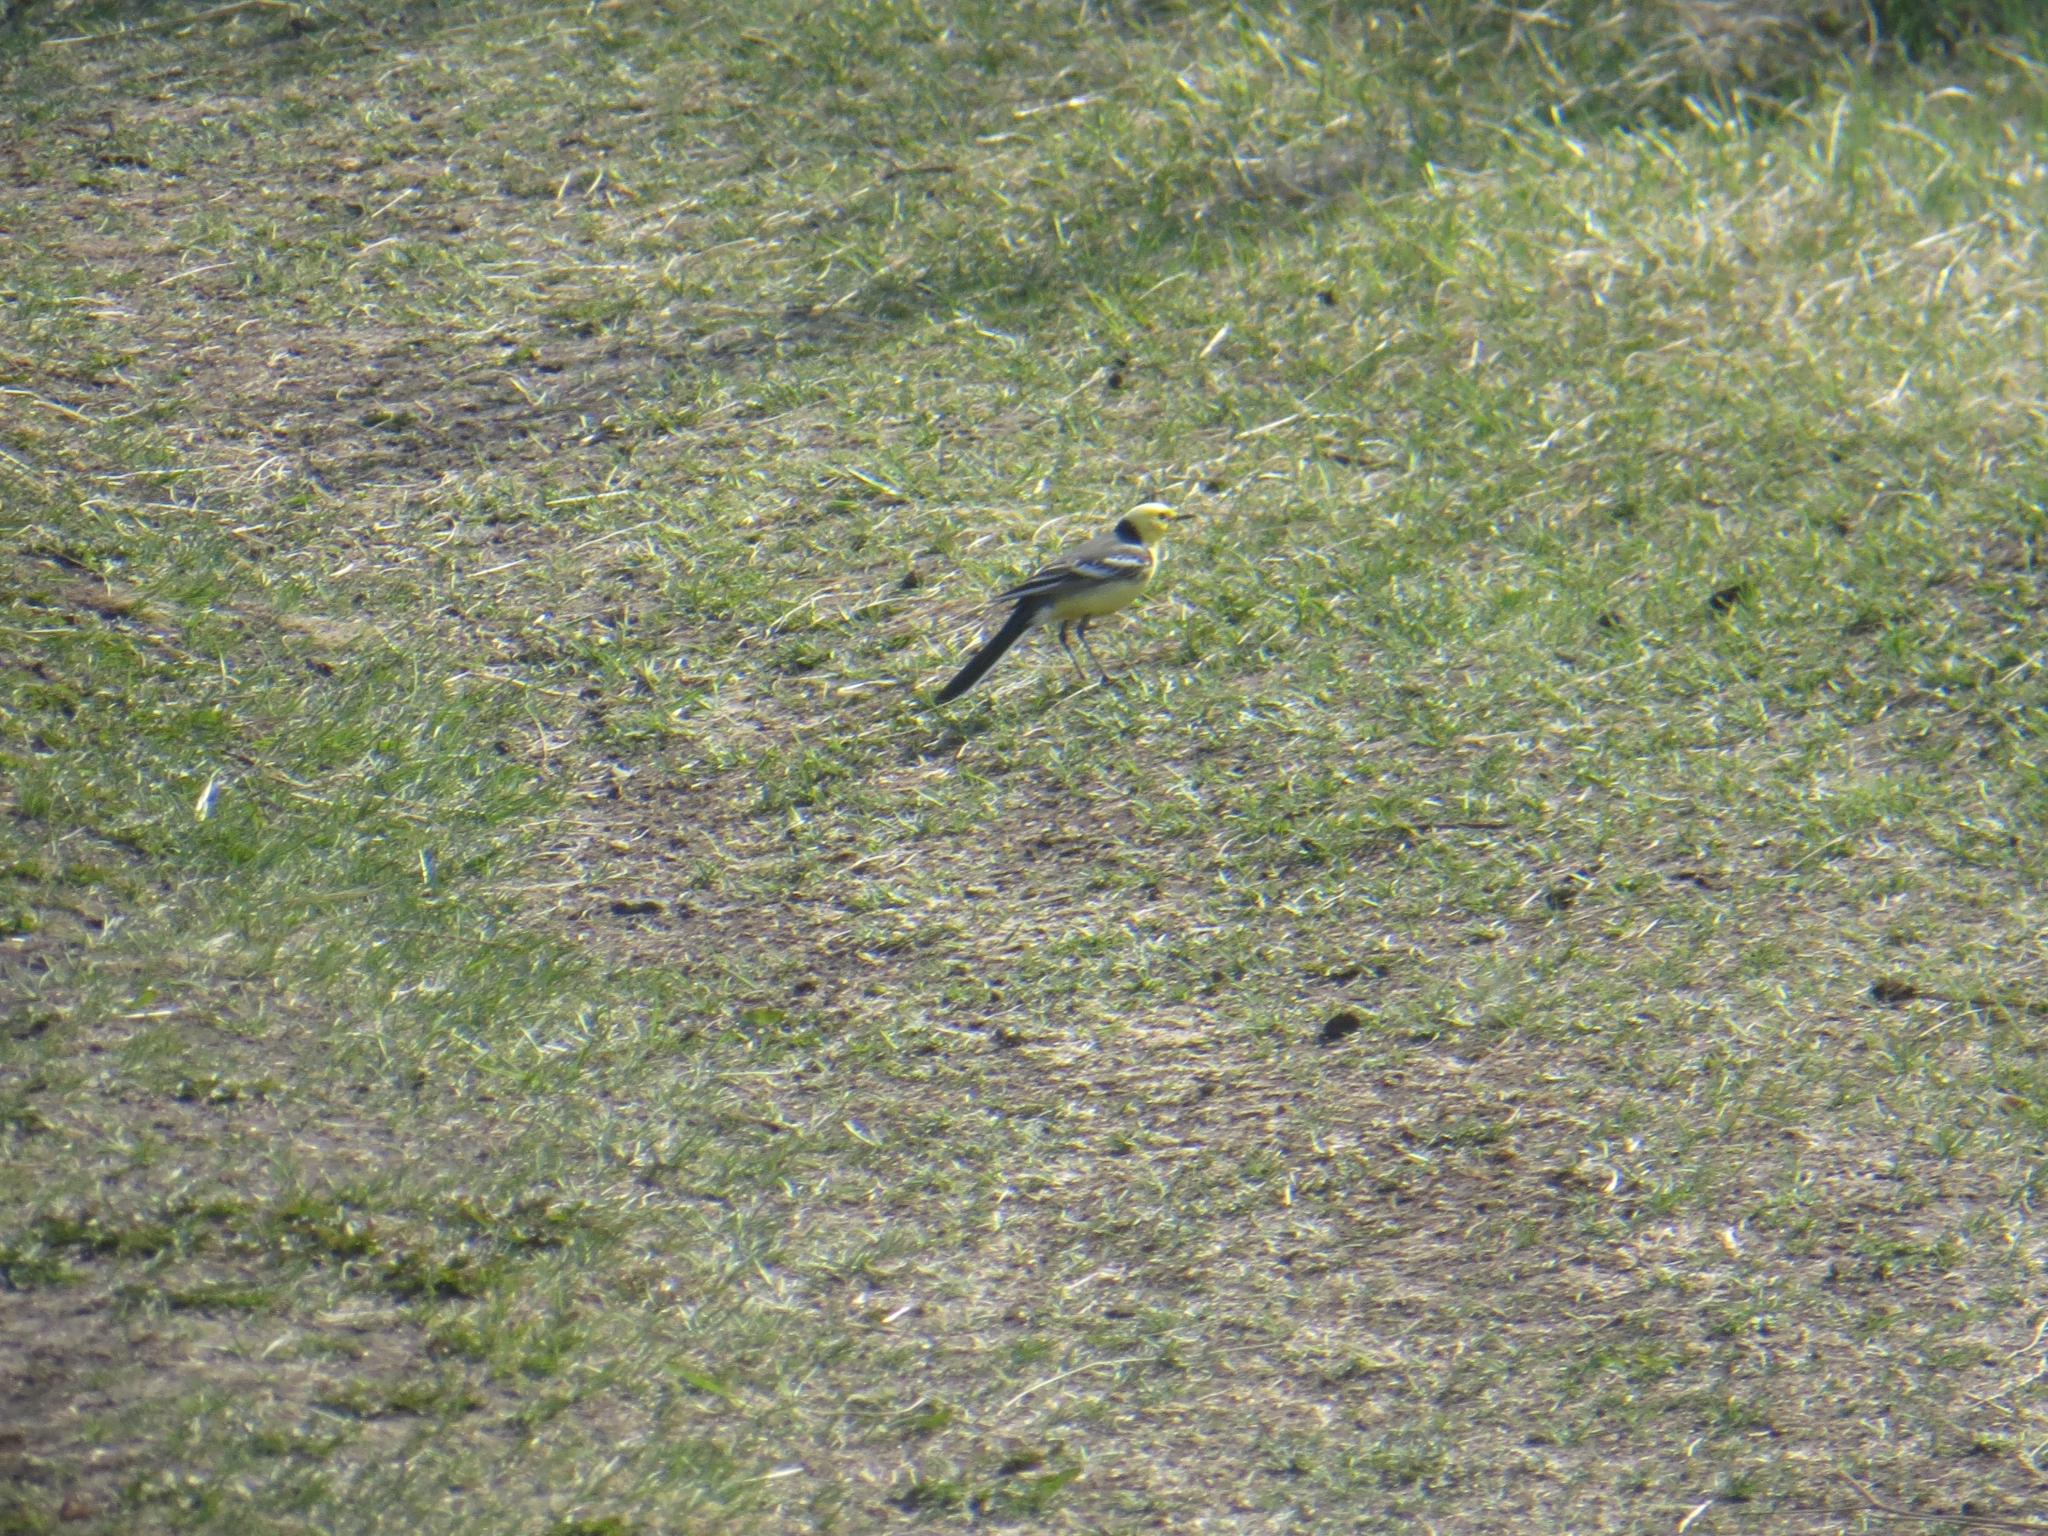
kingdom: Animalia
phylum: Chordata
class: Aves
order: Passeriformes
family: Motacillidae
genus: Motacilla
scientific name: Motacilla citreola
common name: Citrine wagtail
